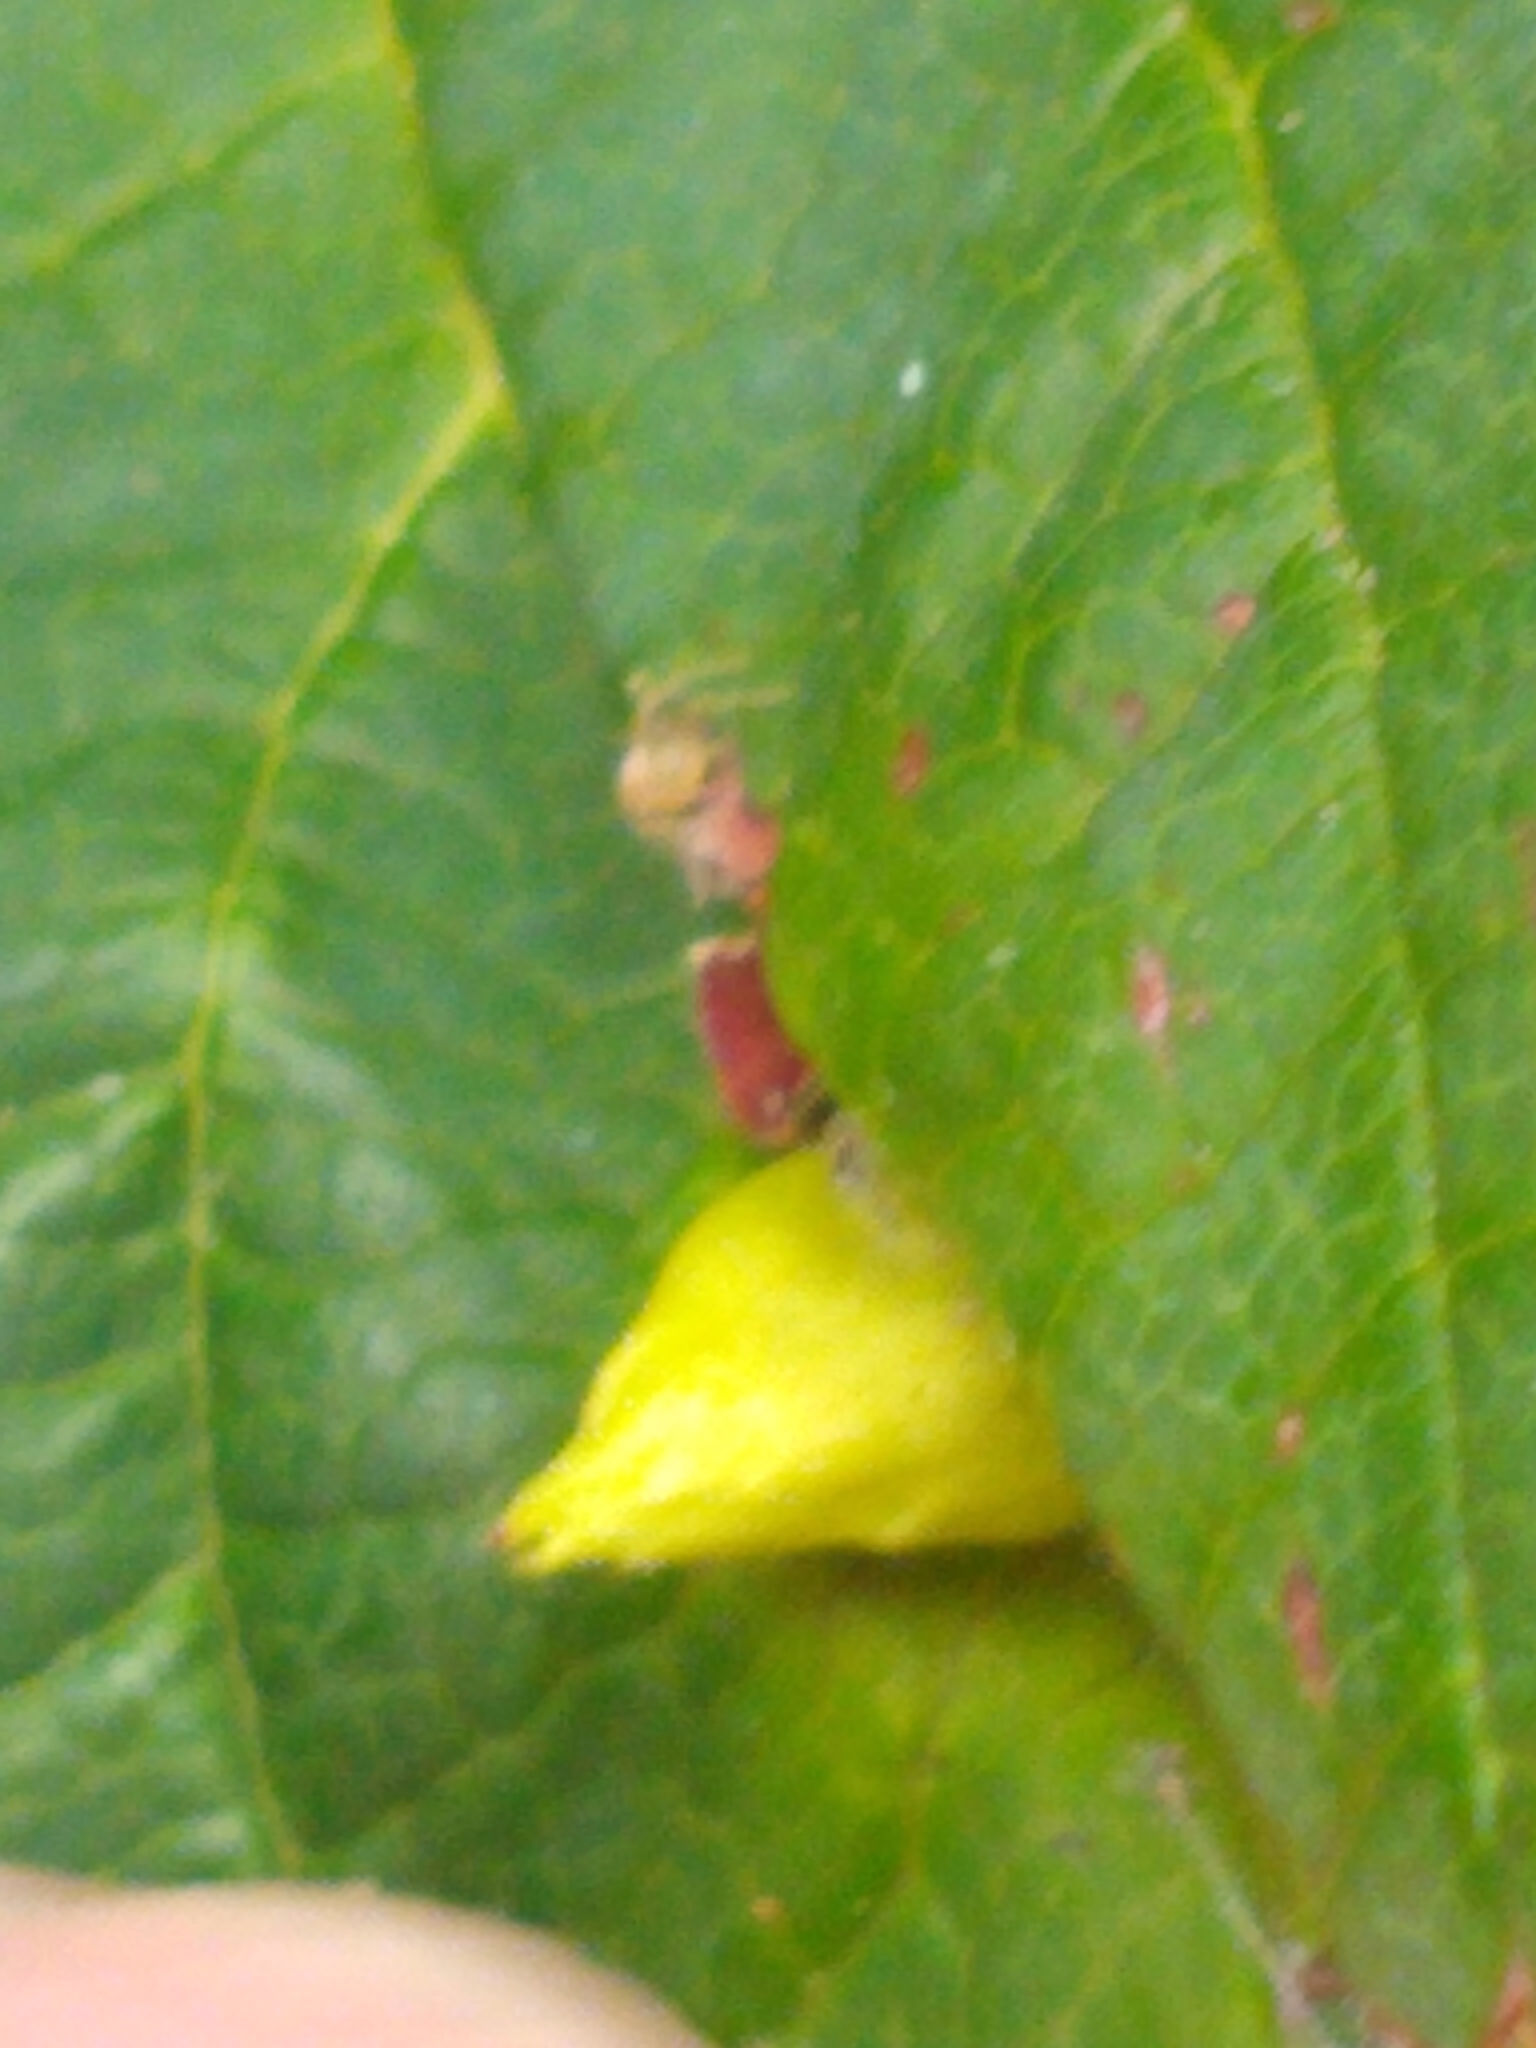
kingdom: Animalia
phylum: Arthropoda
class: Insecta
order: Hemiptera
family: Aphididae
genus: Hormaphis
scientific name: Hormaphis hamamelidis
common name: Witch-hazel cone gall aphid
